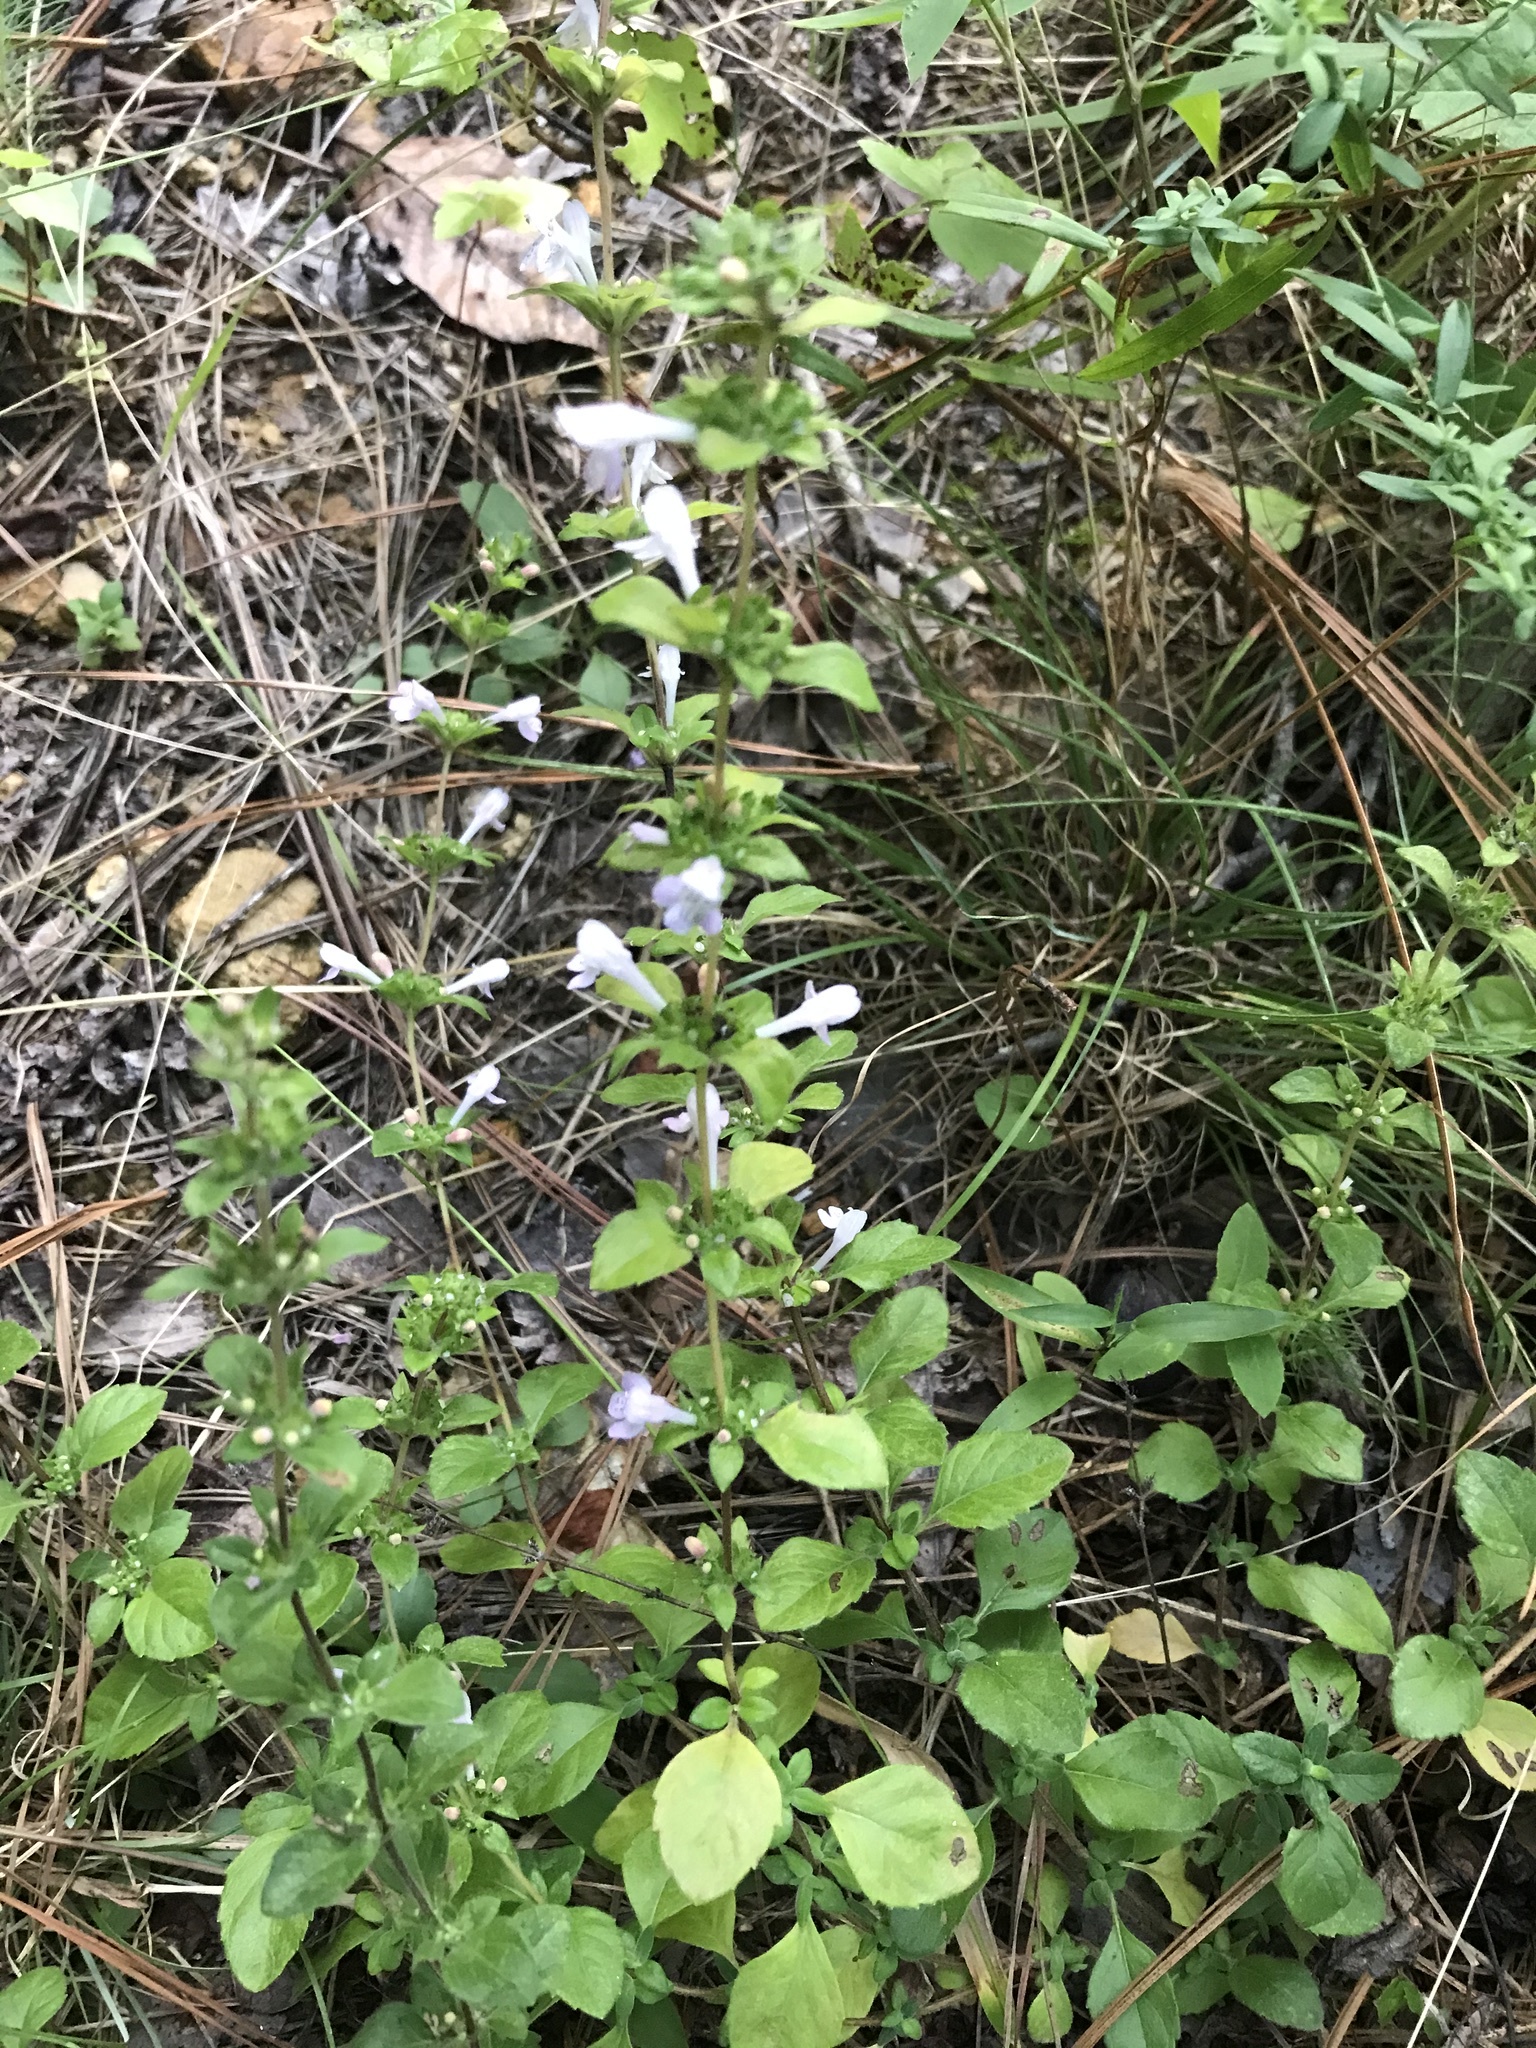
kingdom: Plantae
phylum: Tracheophyta
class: Magnoliopsida
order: Lamiales
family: Lamiaceae
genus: Clinopodium
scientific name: Clinopodium talladeganum
